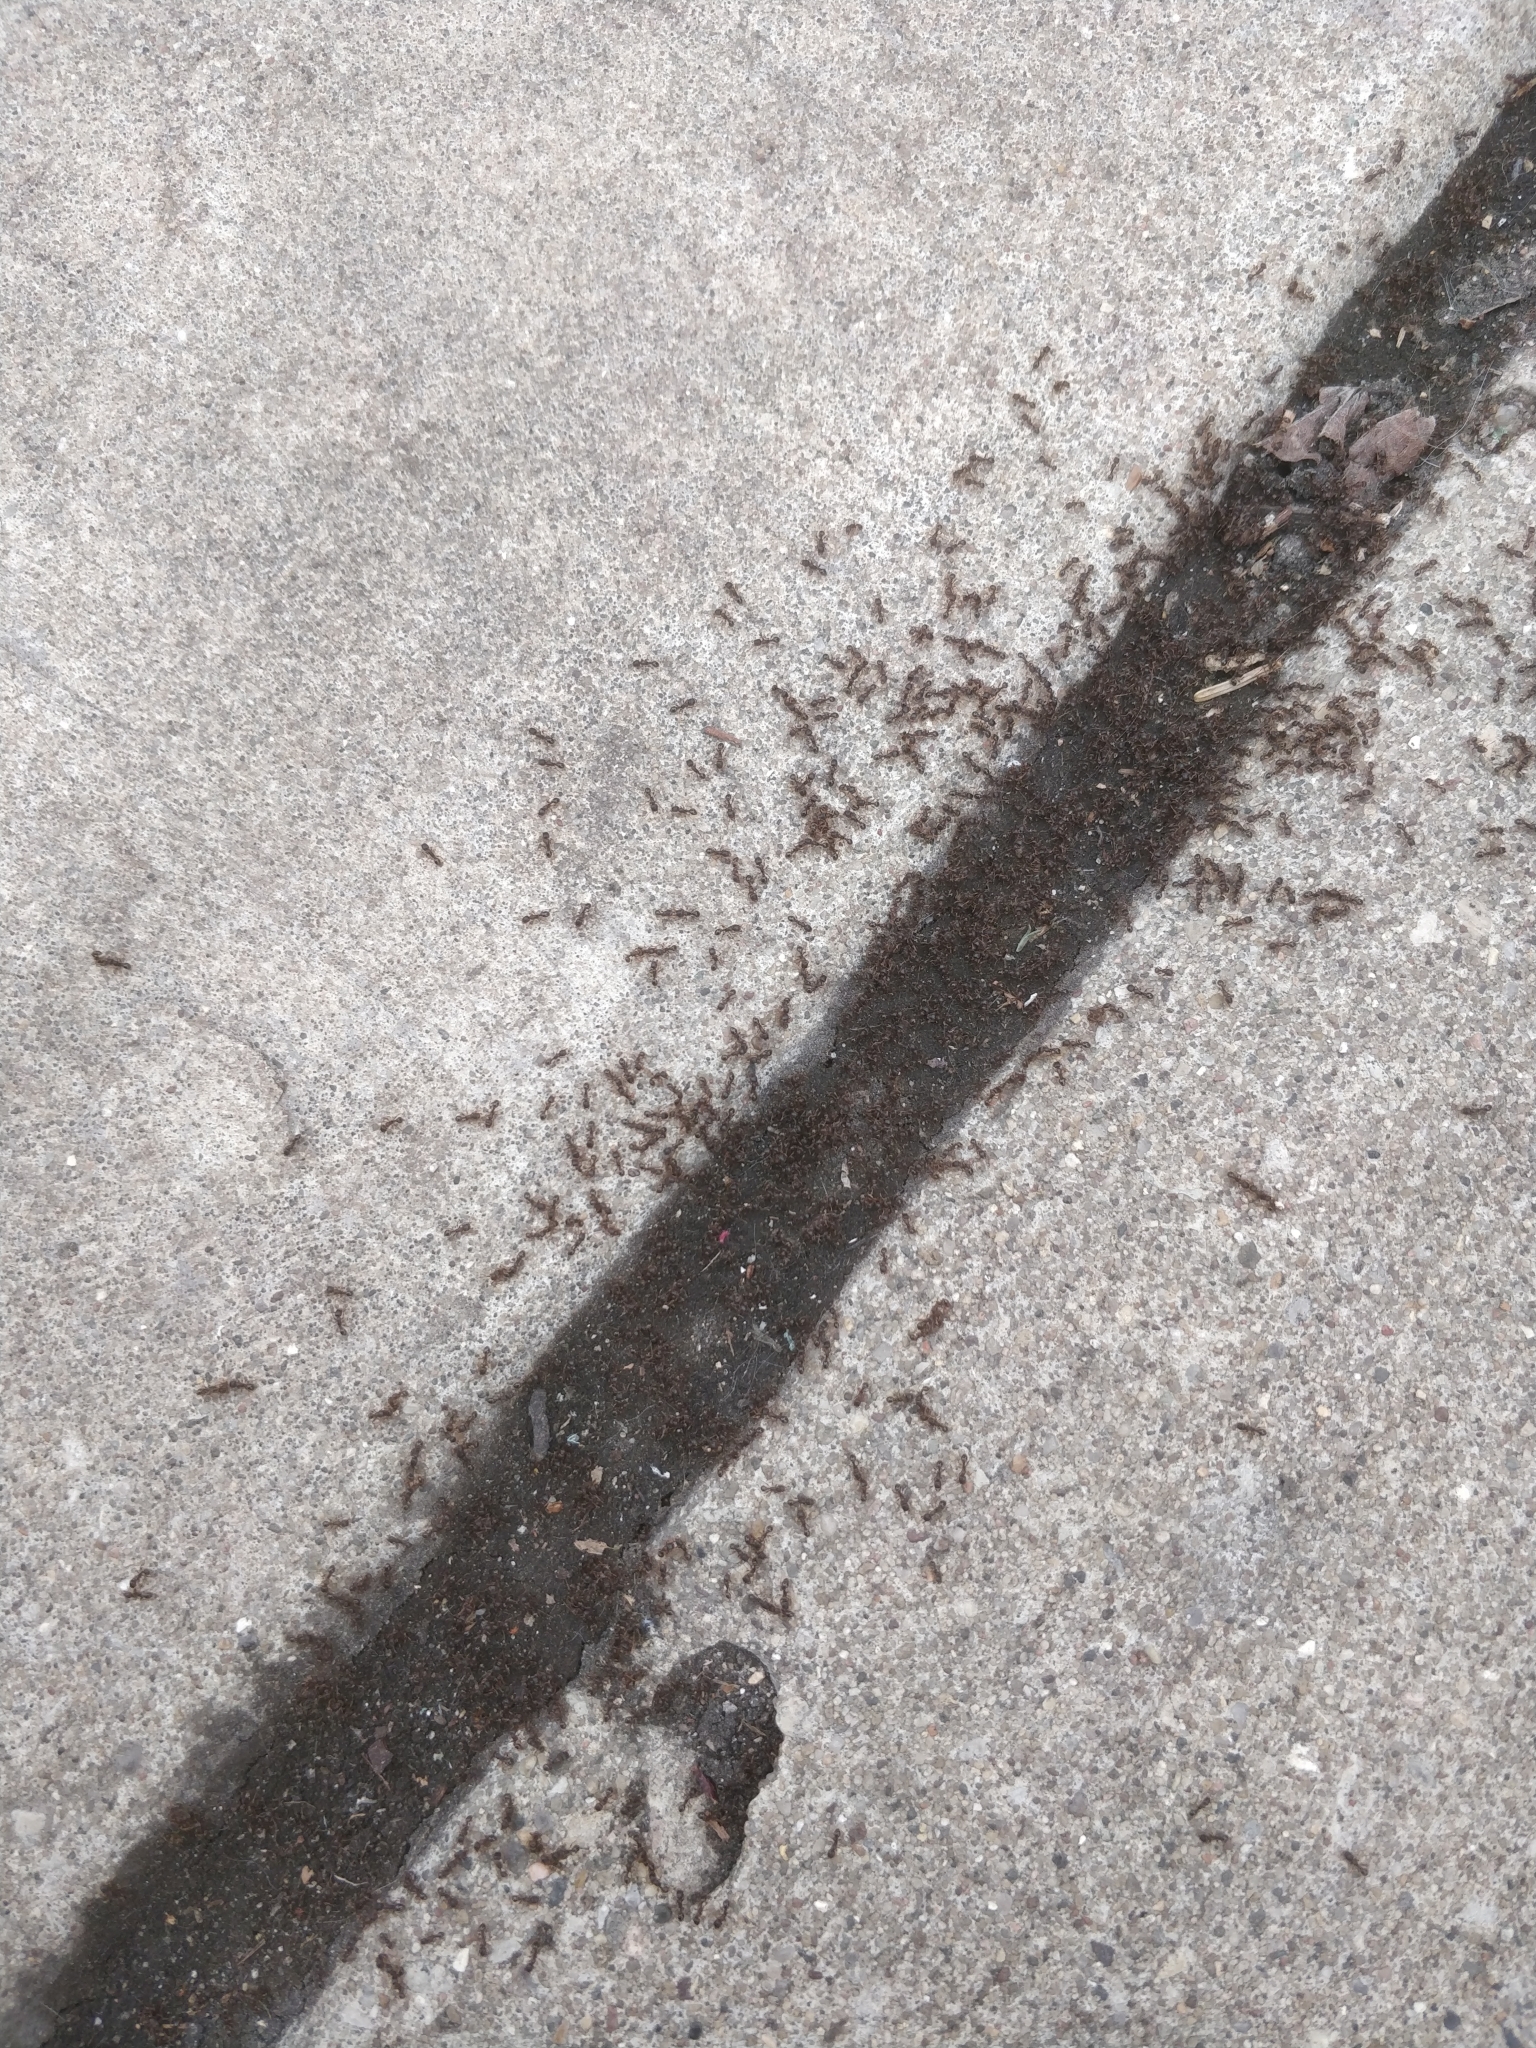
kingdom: Animalia
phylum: Arthropoda
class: Insecta
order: Hymenoptera
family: Formicidae
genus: Tetramorium
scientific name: Tetramorium immigrans
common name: Pavement ant
